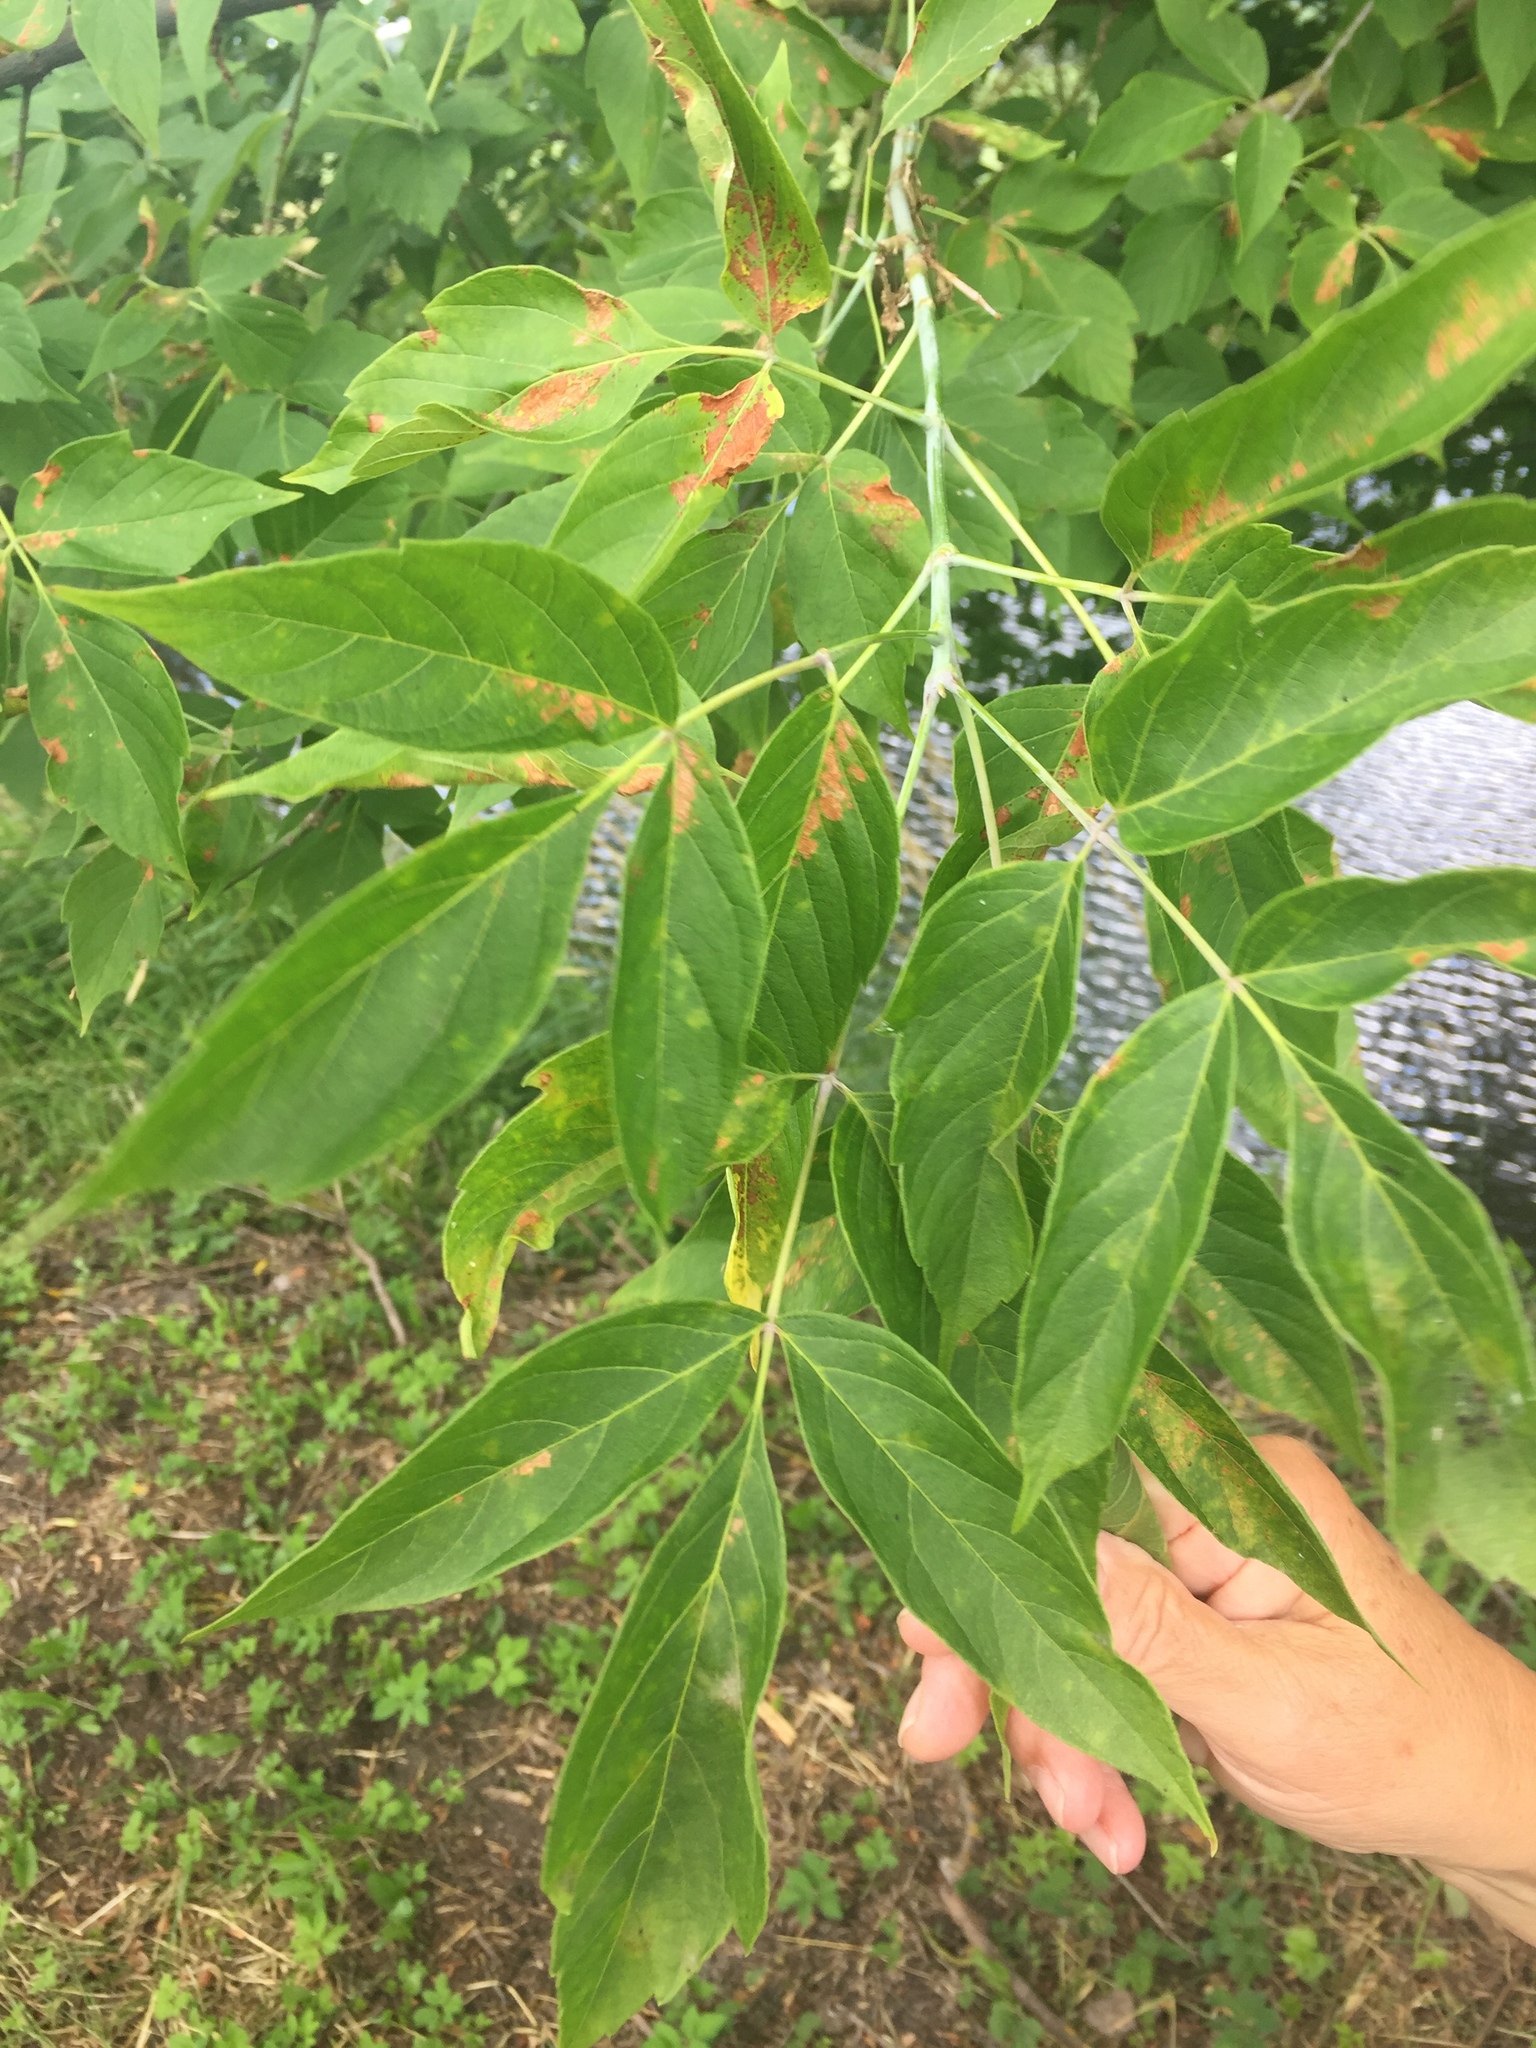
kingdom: Plantae
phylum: Tracheophyta
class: Magnoliopsida
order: Sapindales
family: Sapindaceae
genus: Acer
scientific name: Acer negundo
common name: Ashleaf maple
